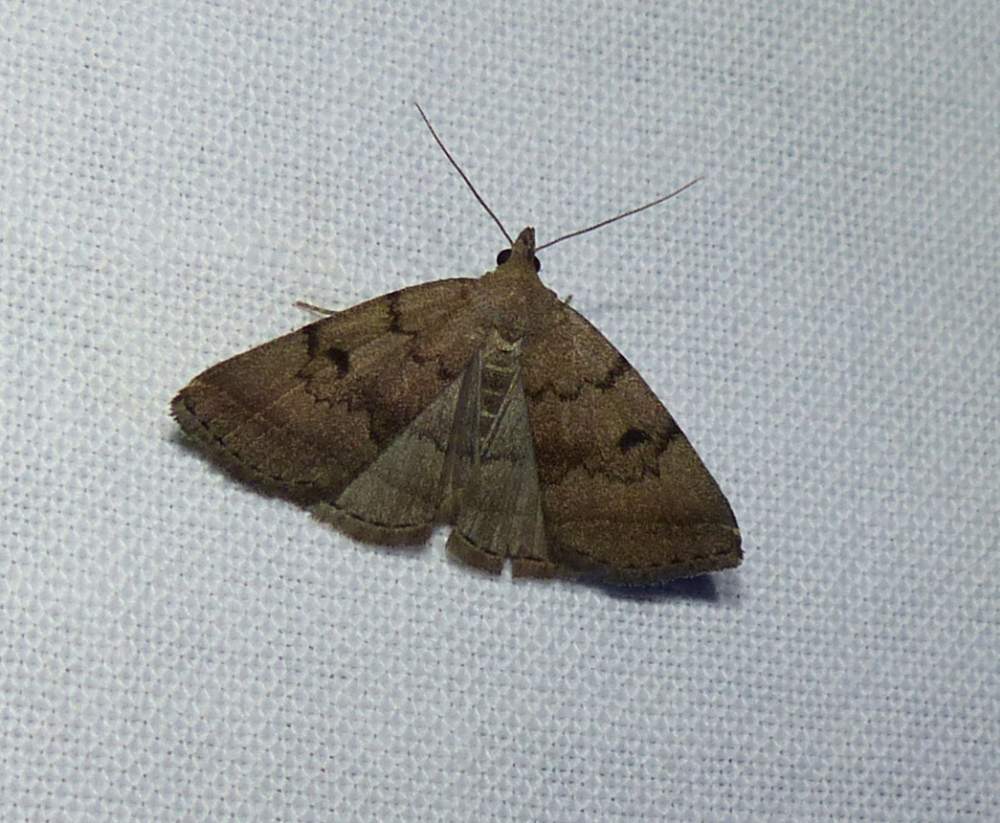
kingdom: Animalia
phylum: Arthropoda
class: Insecta
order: Lepidoptera
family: Erebidae
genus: Zanclognatha
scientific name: Zanclognatha dentata
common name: Toothed fan-foot
